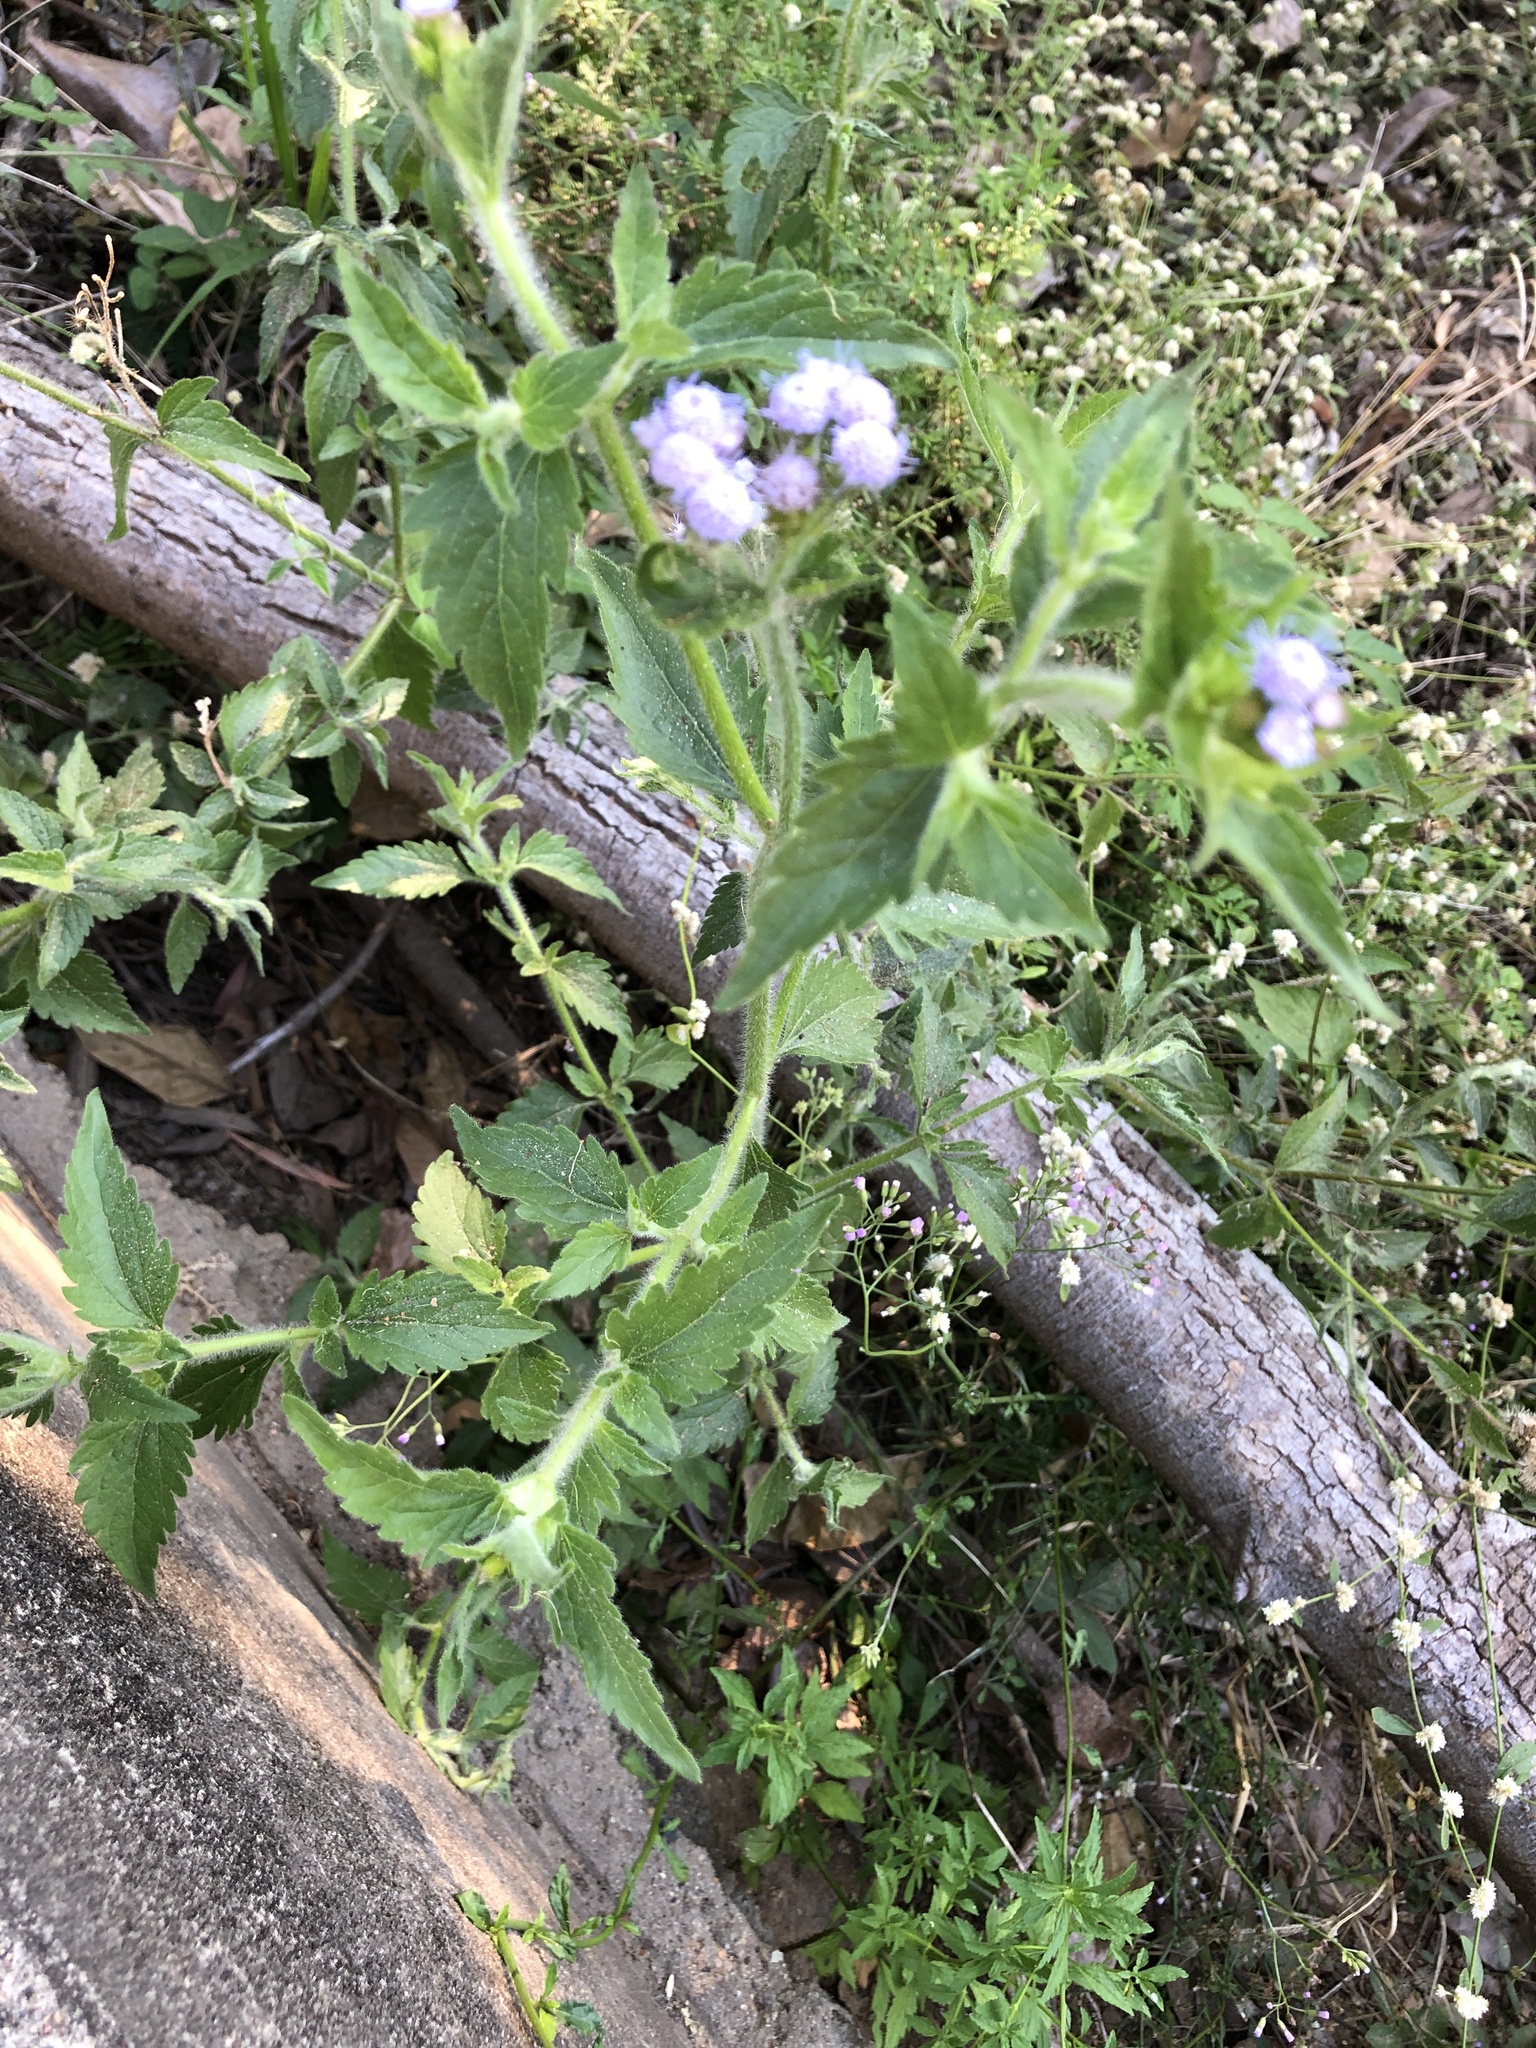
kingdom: Plantae
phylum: Tracheophyta
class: Magnoliopsida
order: Asterales
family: Asteraceae
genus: Praxelis
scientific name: Praxelis clematidea
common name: Praxelis
